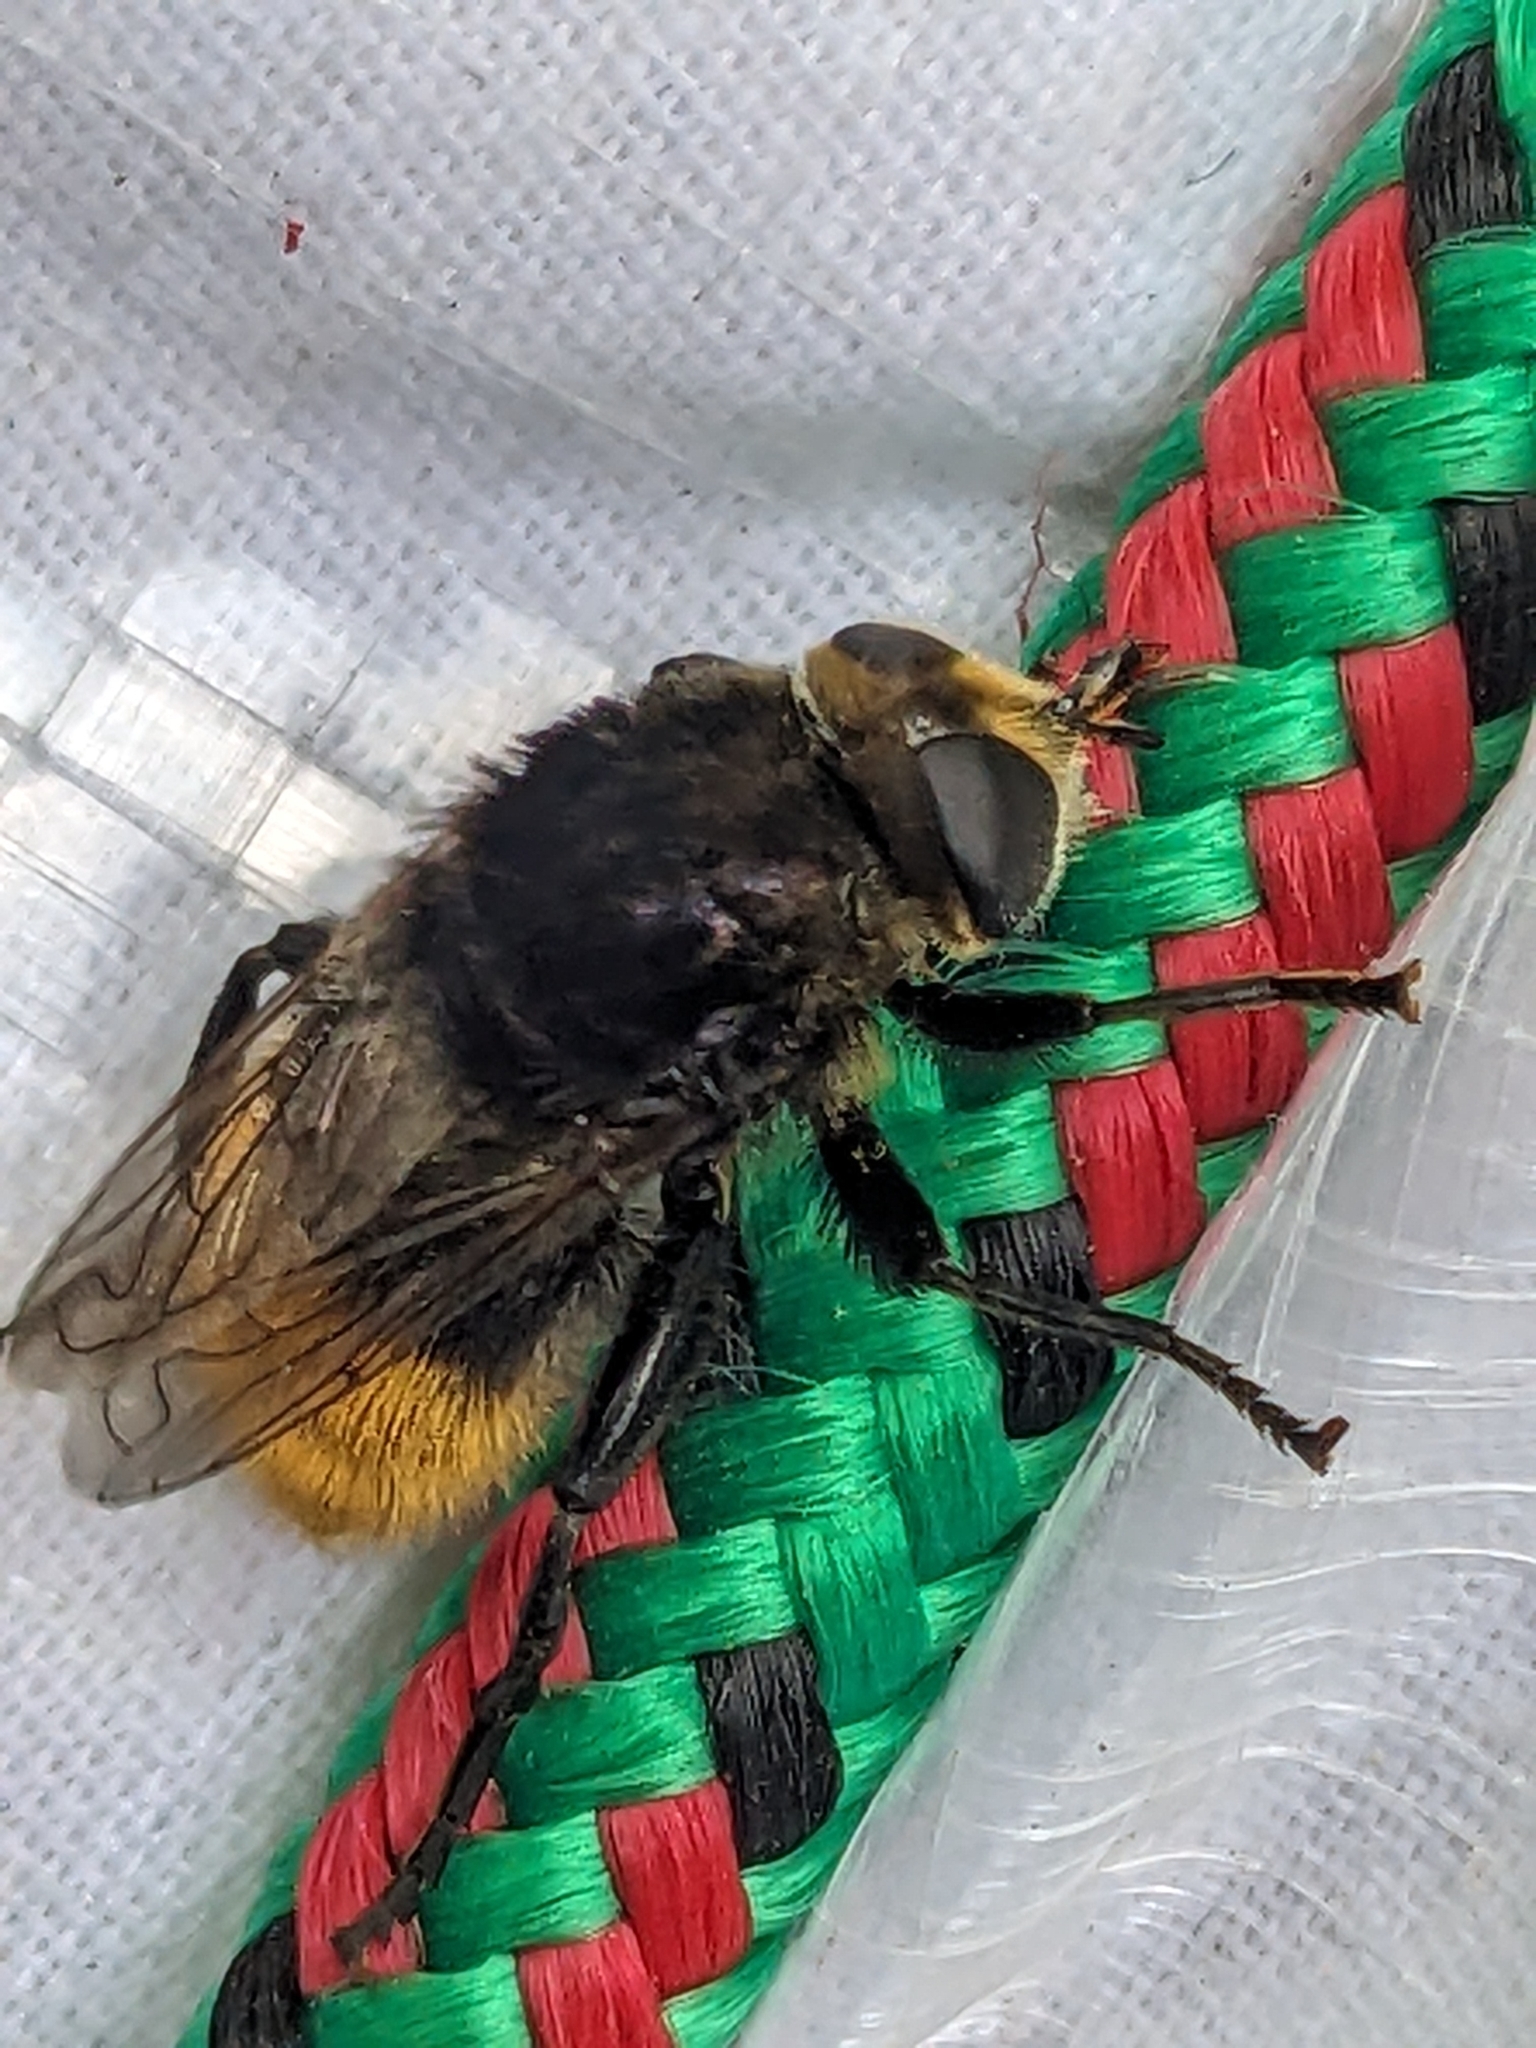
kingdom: Animalia
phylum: Arthropoda
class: Insecta
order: Diptera
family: Syrphidae
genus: Merodon
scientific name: Merodon equestris
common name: Greater bulb-fly
